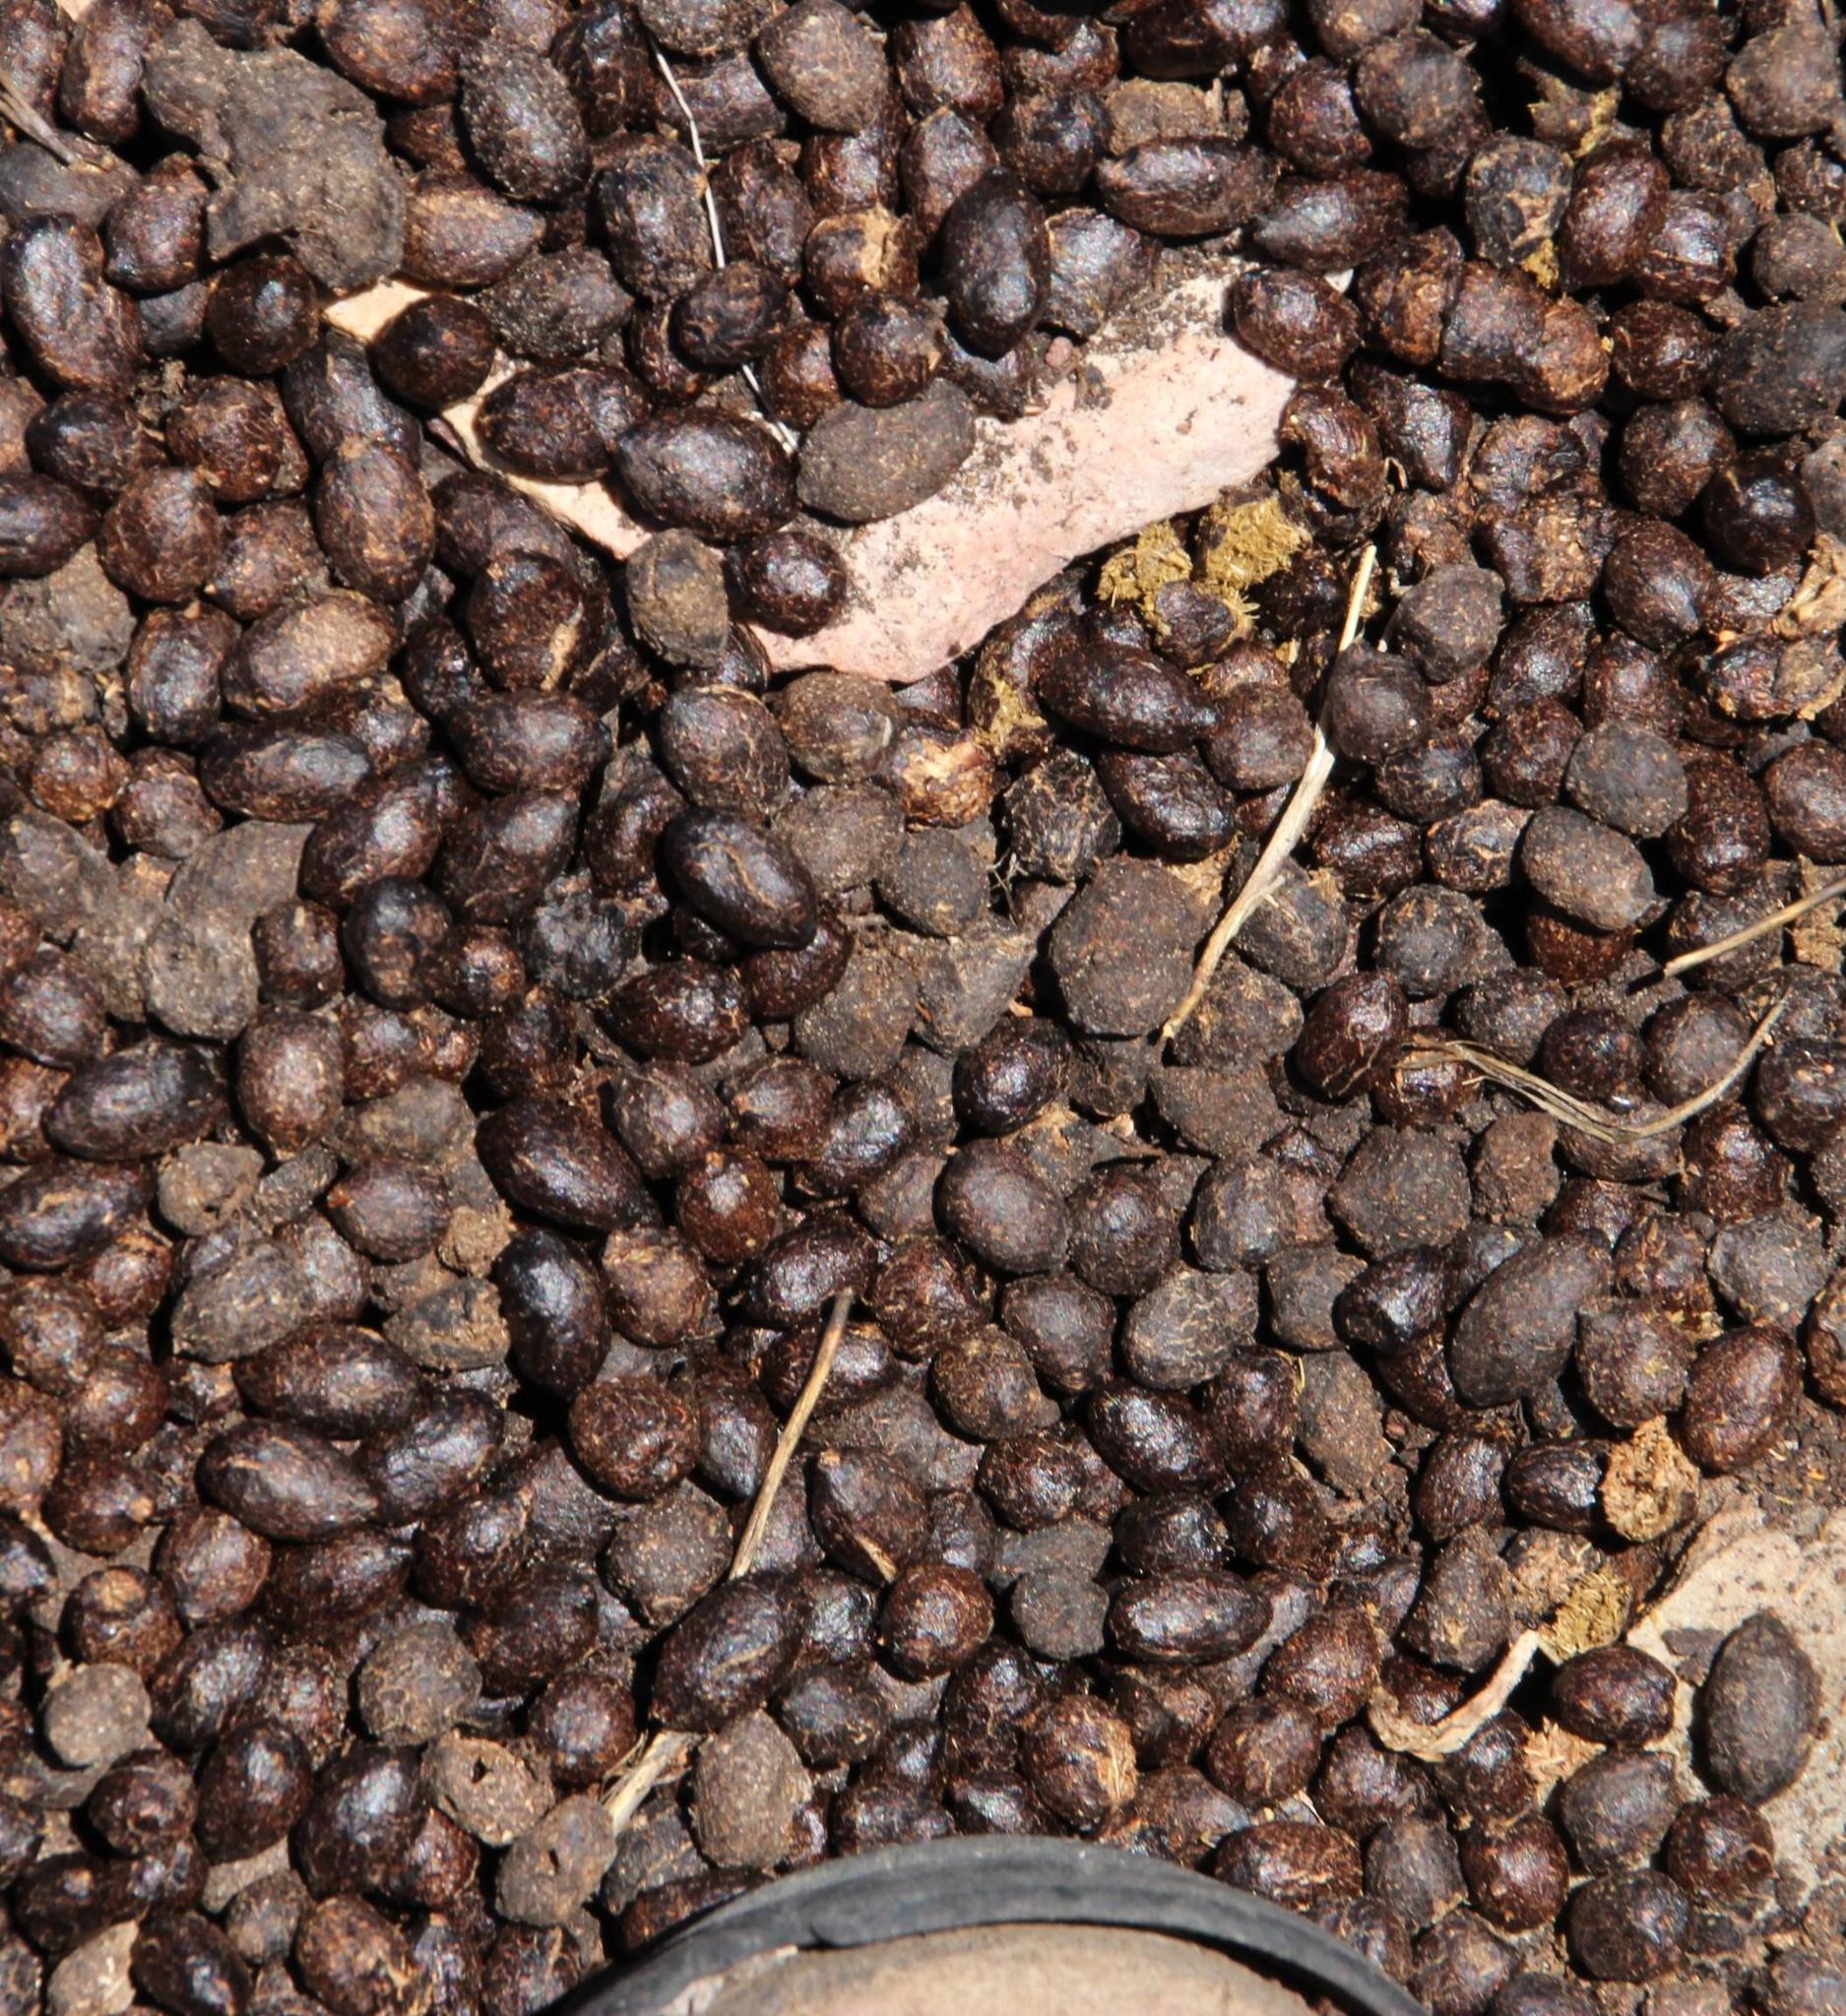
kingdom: Animalia
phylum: Chordata
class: Mammalia
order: Artiodactyla
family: Bovidae
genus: Oreotragus
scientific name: Oreotragus oreotragus
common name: Klipspringer
